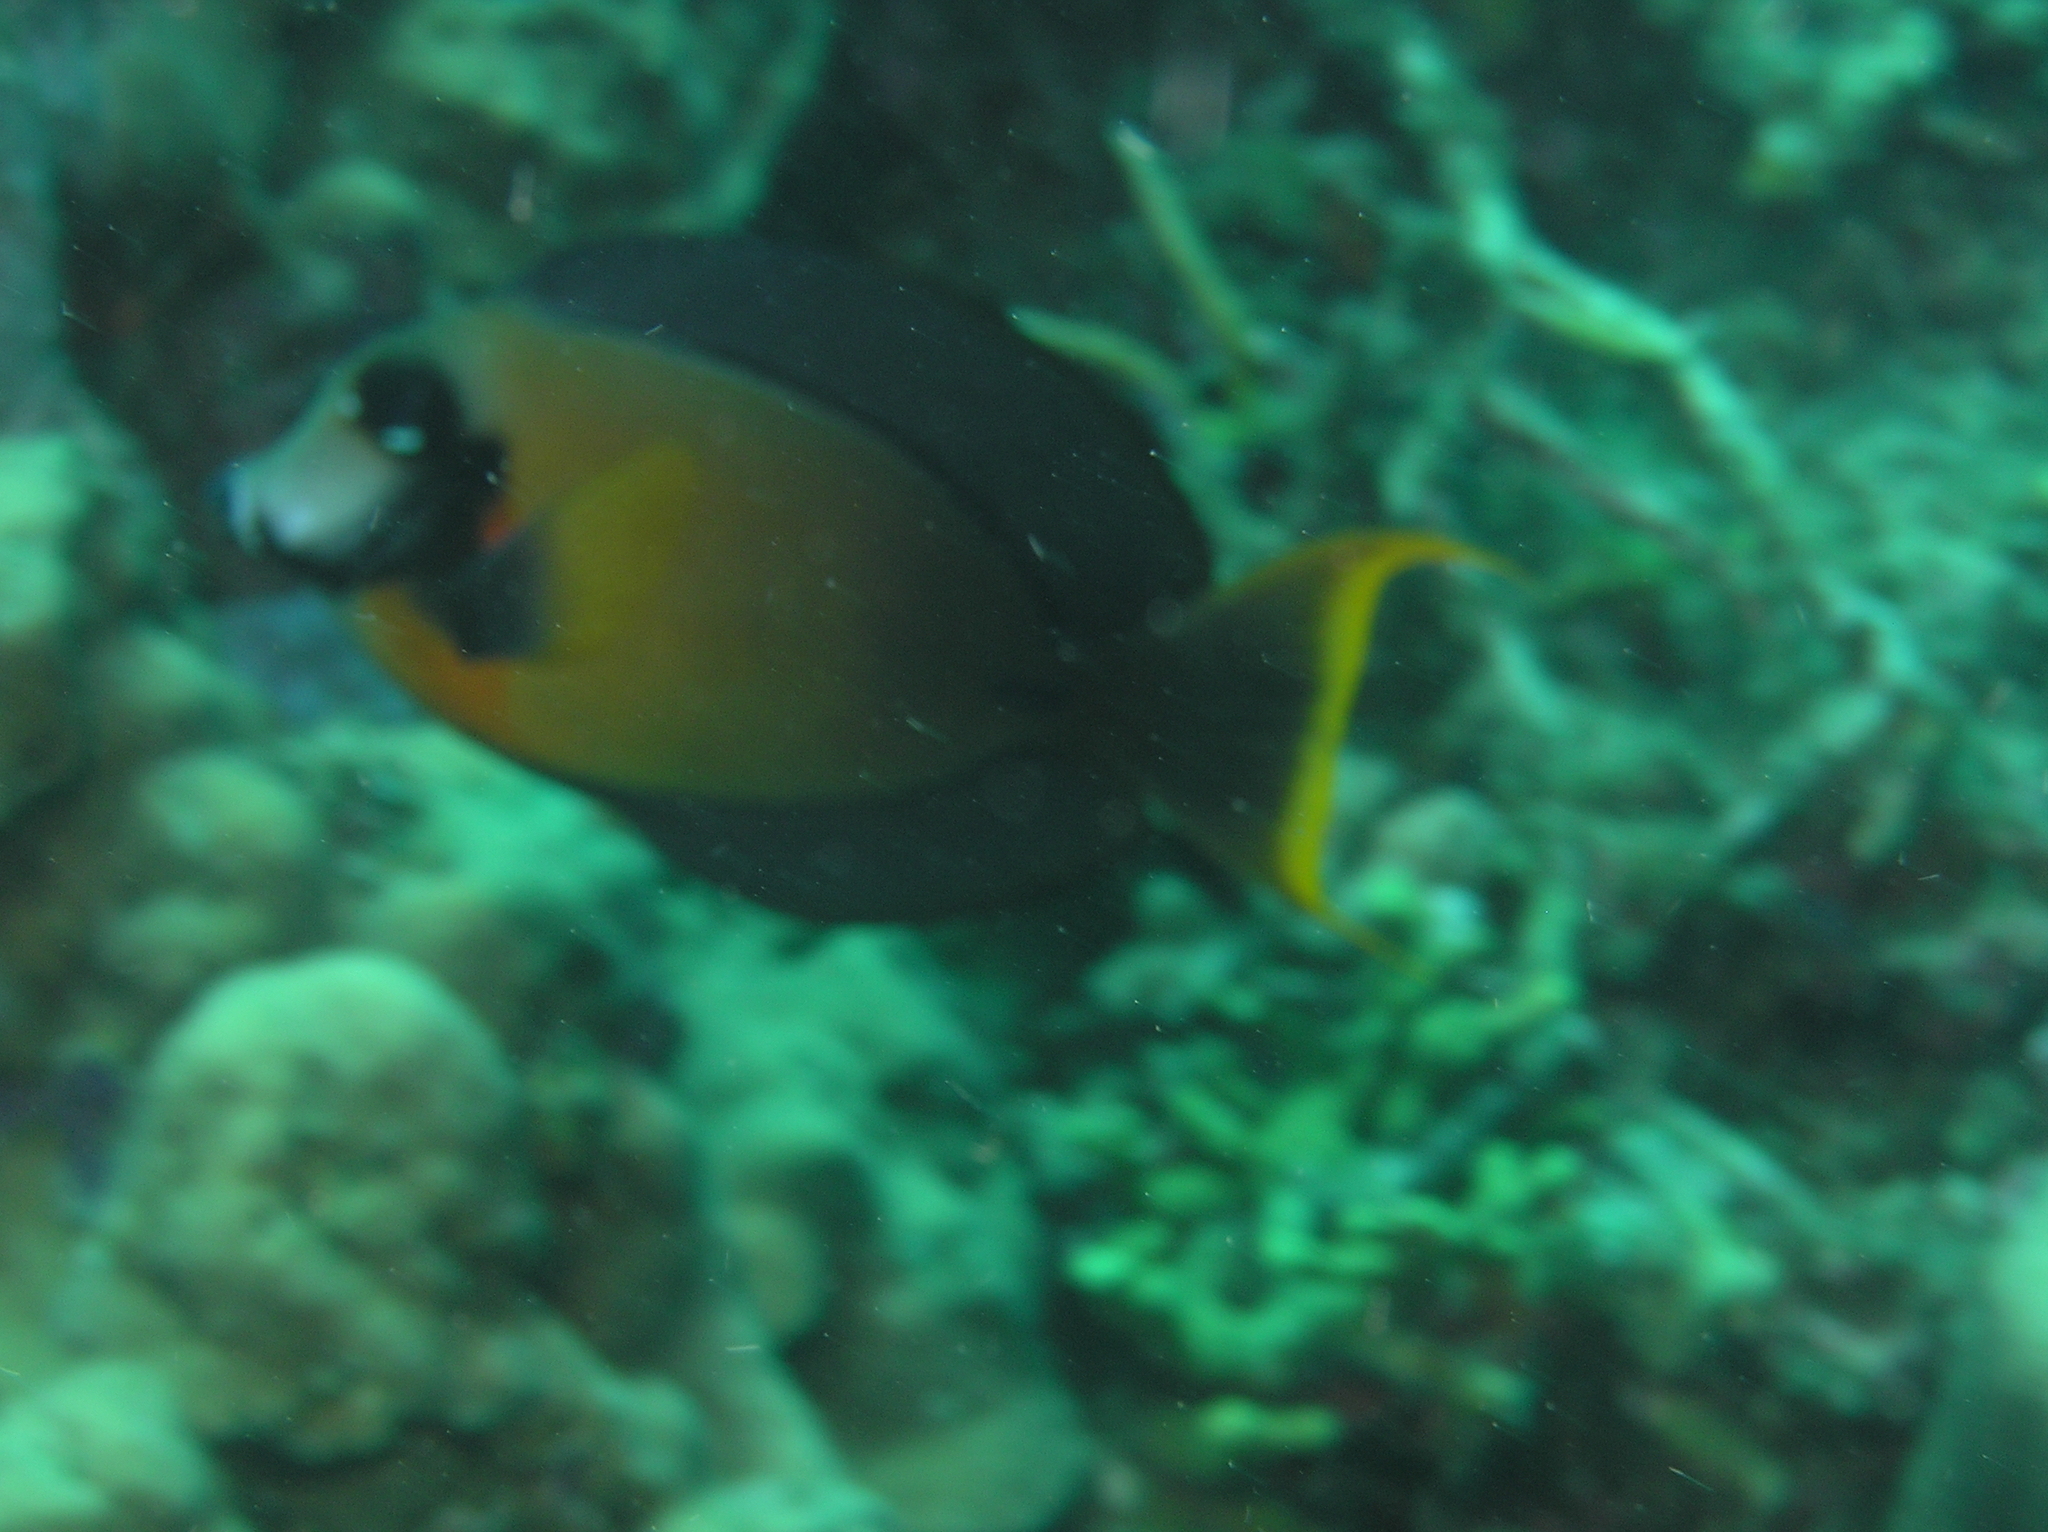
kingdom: Animalia
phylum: Chordata
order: Perciformes
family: Acanthuridae
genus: Acanthurus
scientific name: Acanthurus pyroferus
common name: Chocolate surgeonfish
